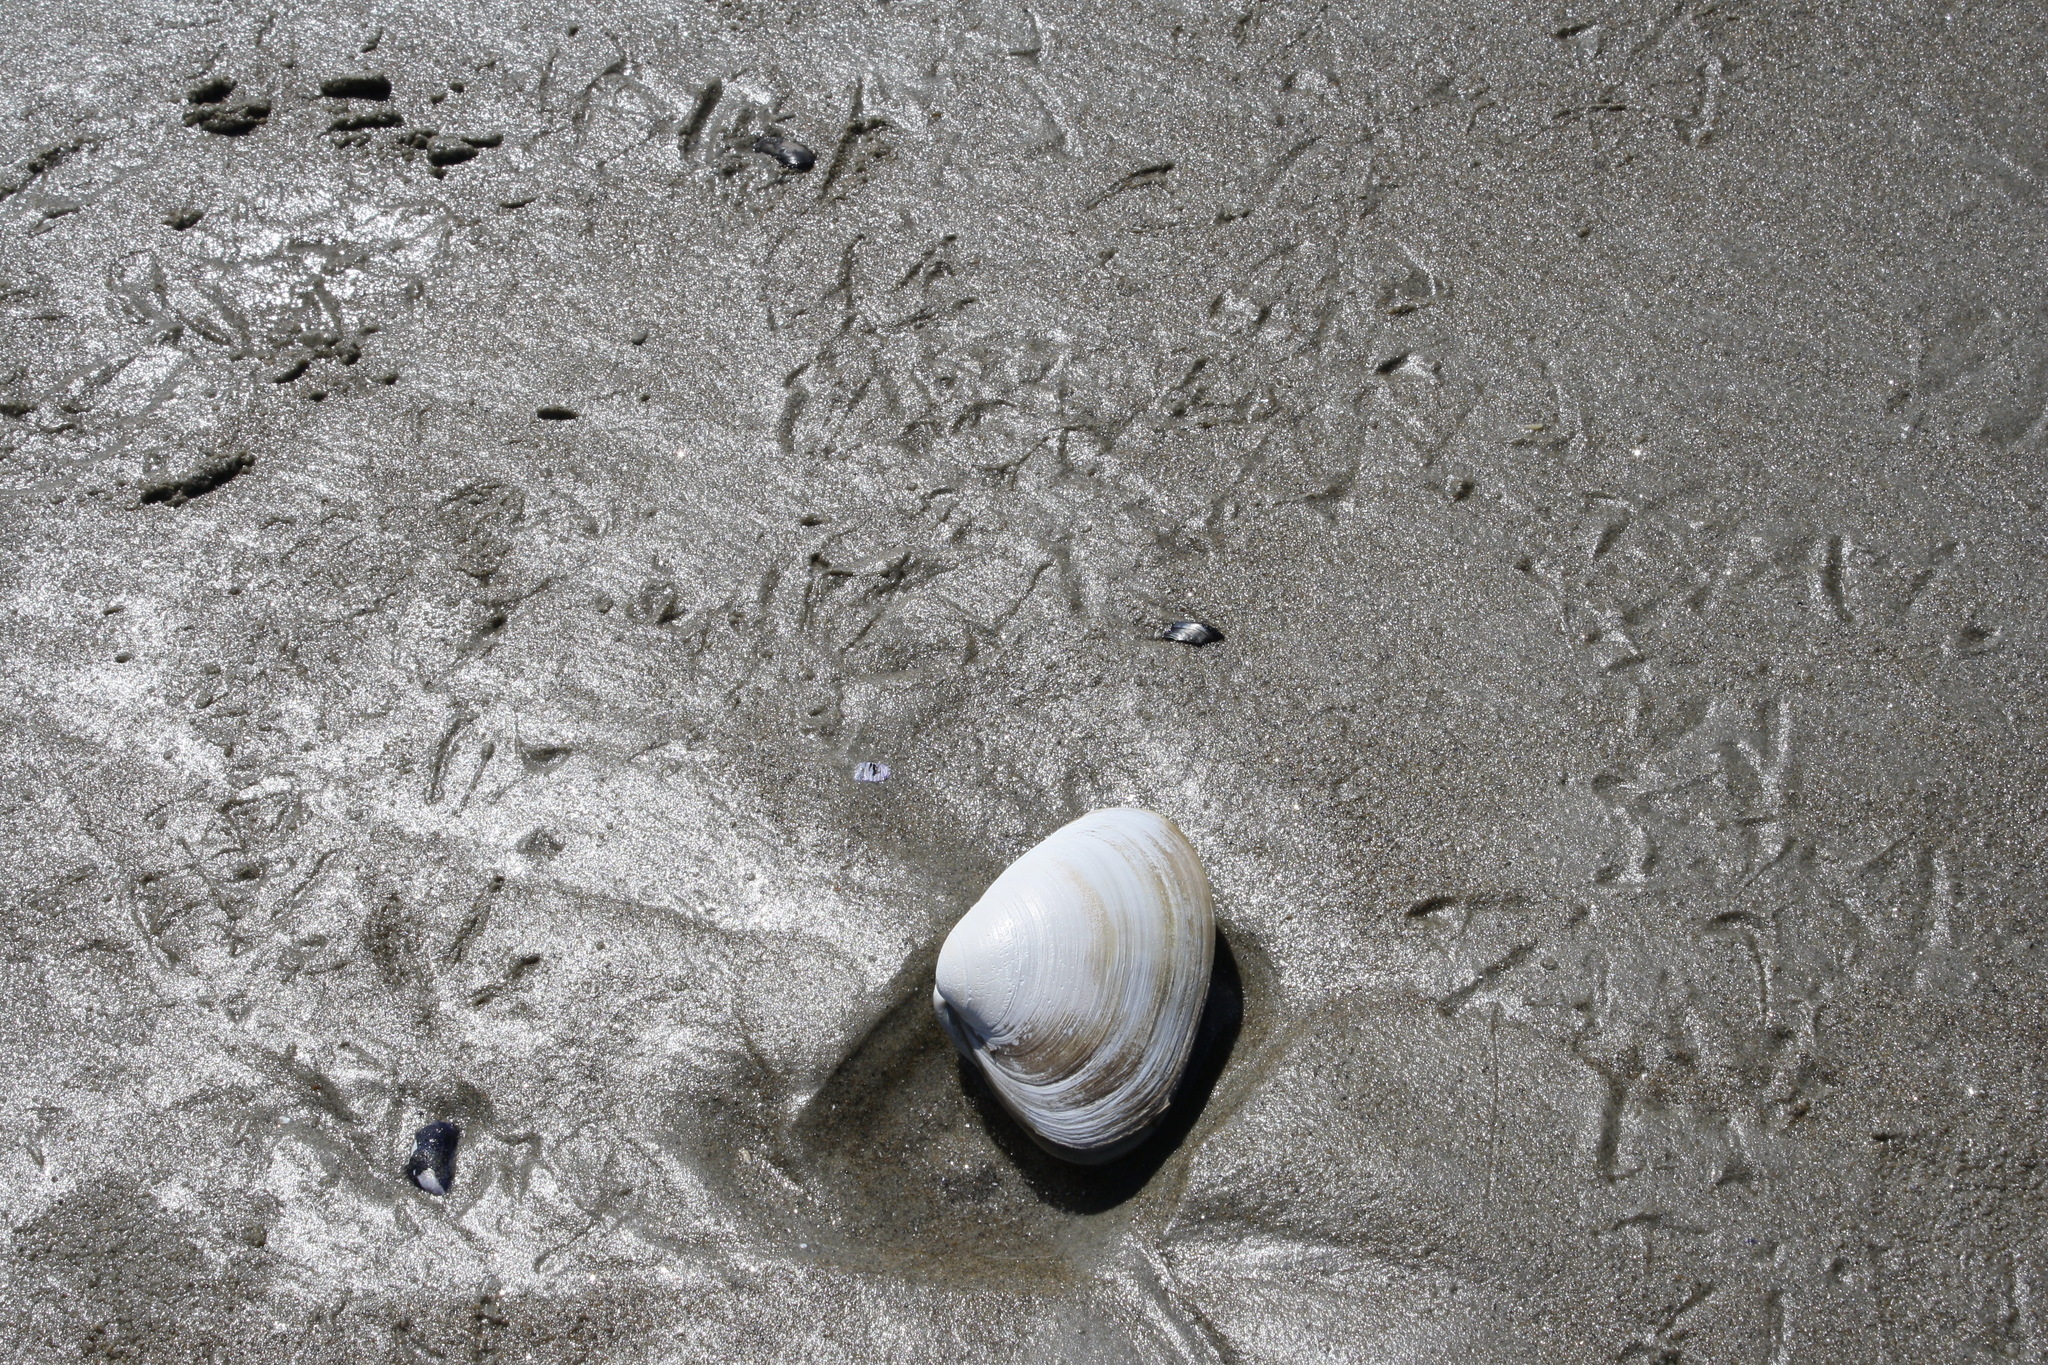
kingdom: Animalia
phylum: Mollusca
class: Bivalvia
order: Venerida
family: Mactridae
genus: Spisula
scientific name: Spisula solidissima
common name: Atlantic surf clam
